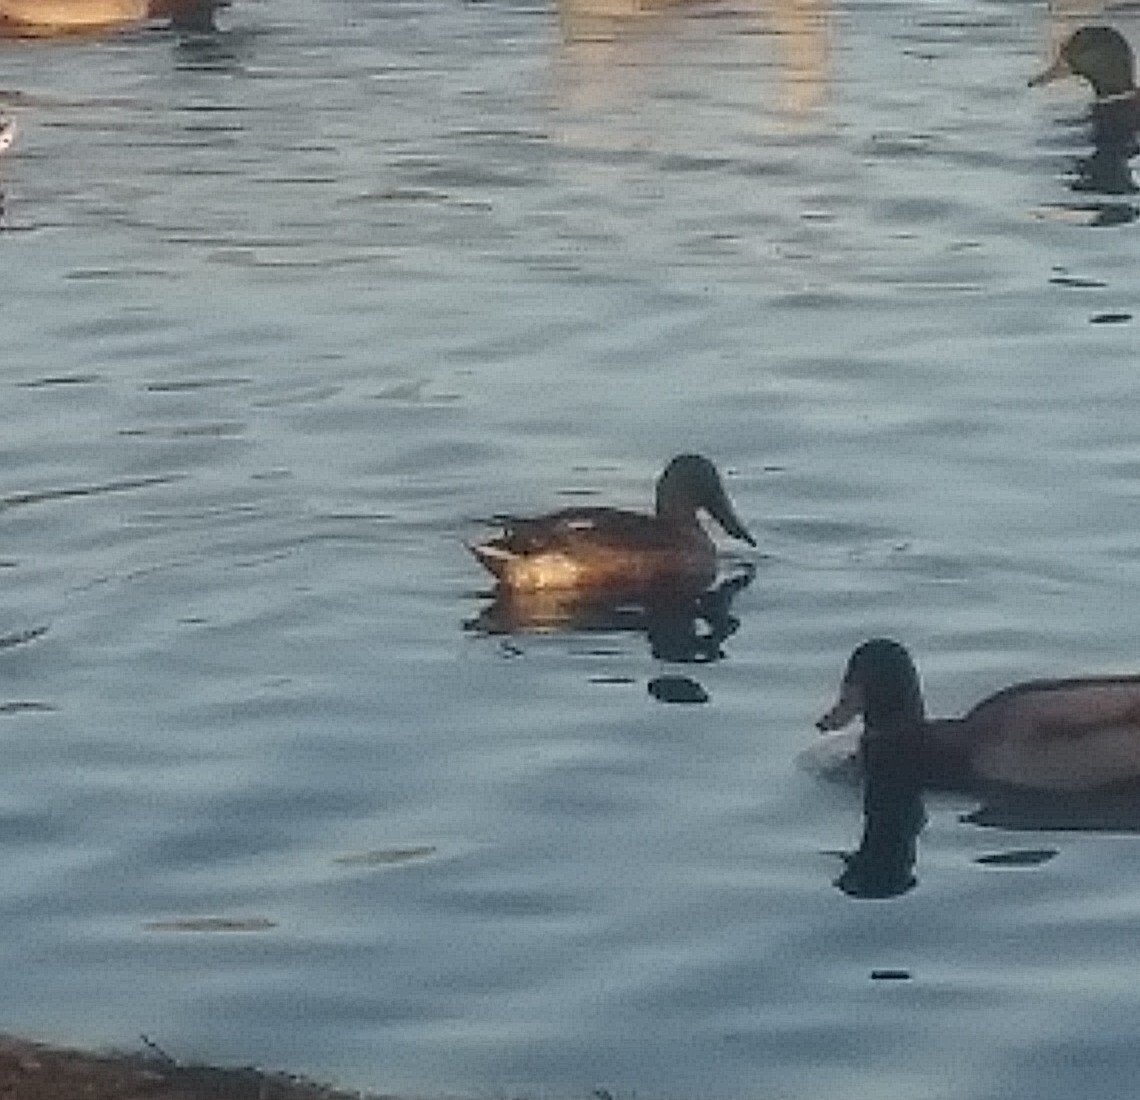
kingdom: Animalia
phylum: Chordata
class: Aves
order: Anseriformes
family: Anatidae
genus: Spatula
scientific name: Spatula clypeata
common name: Northern shoveler
